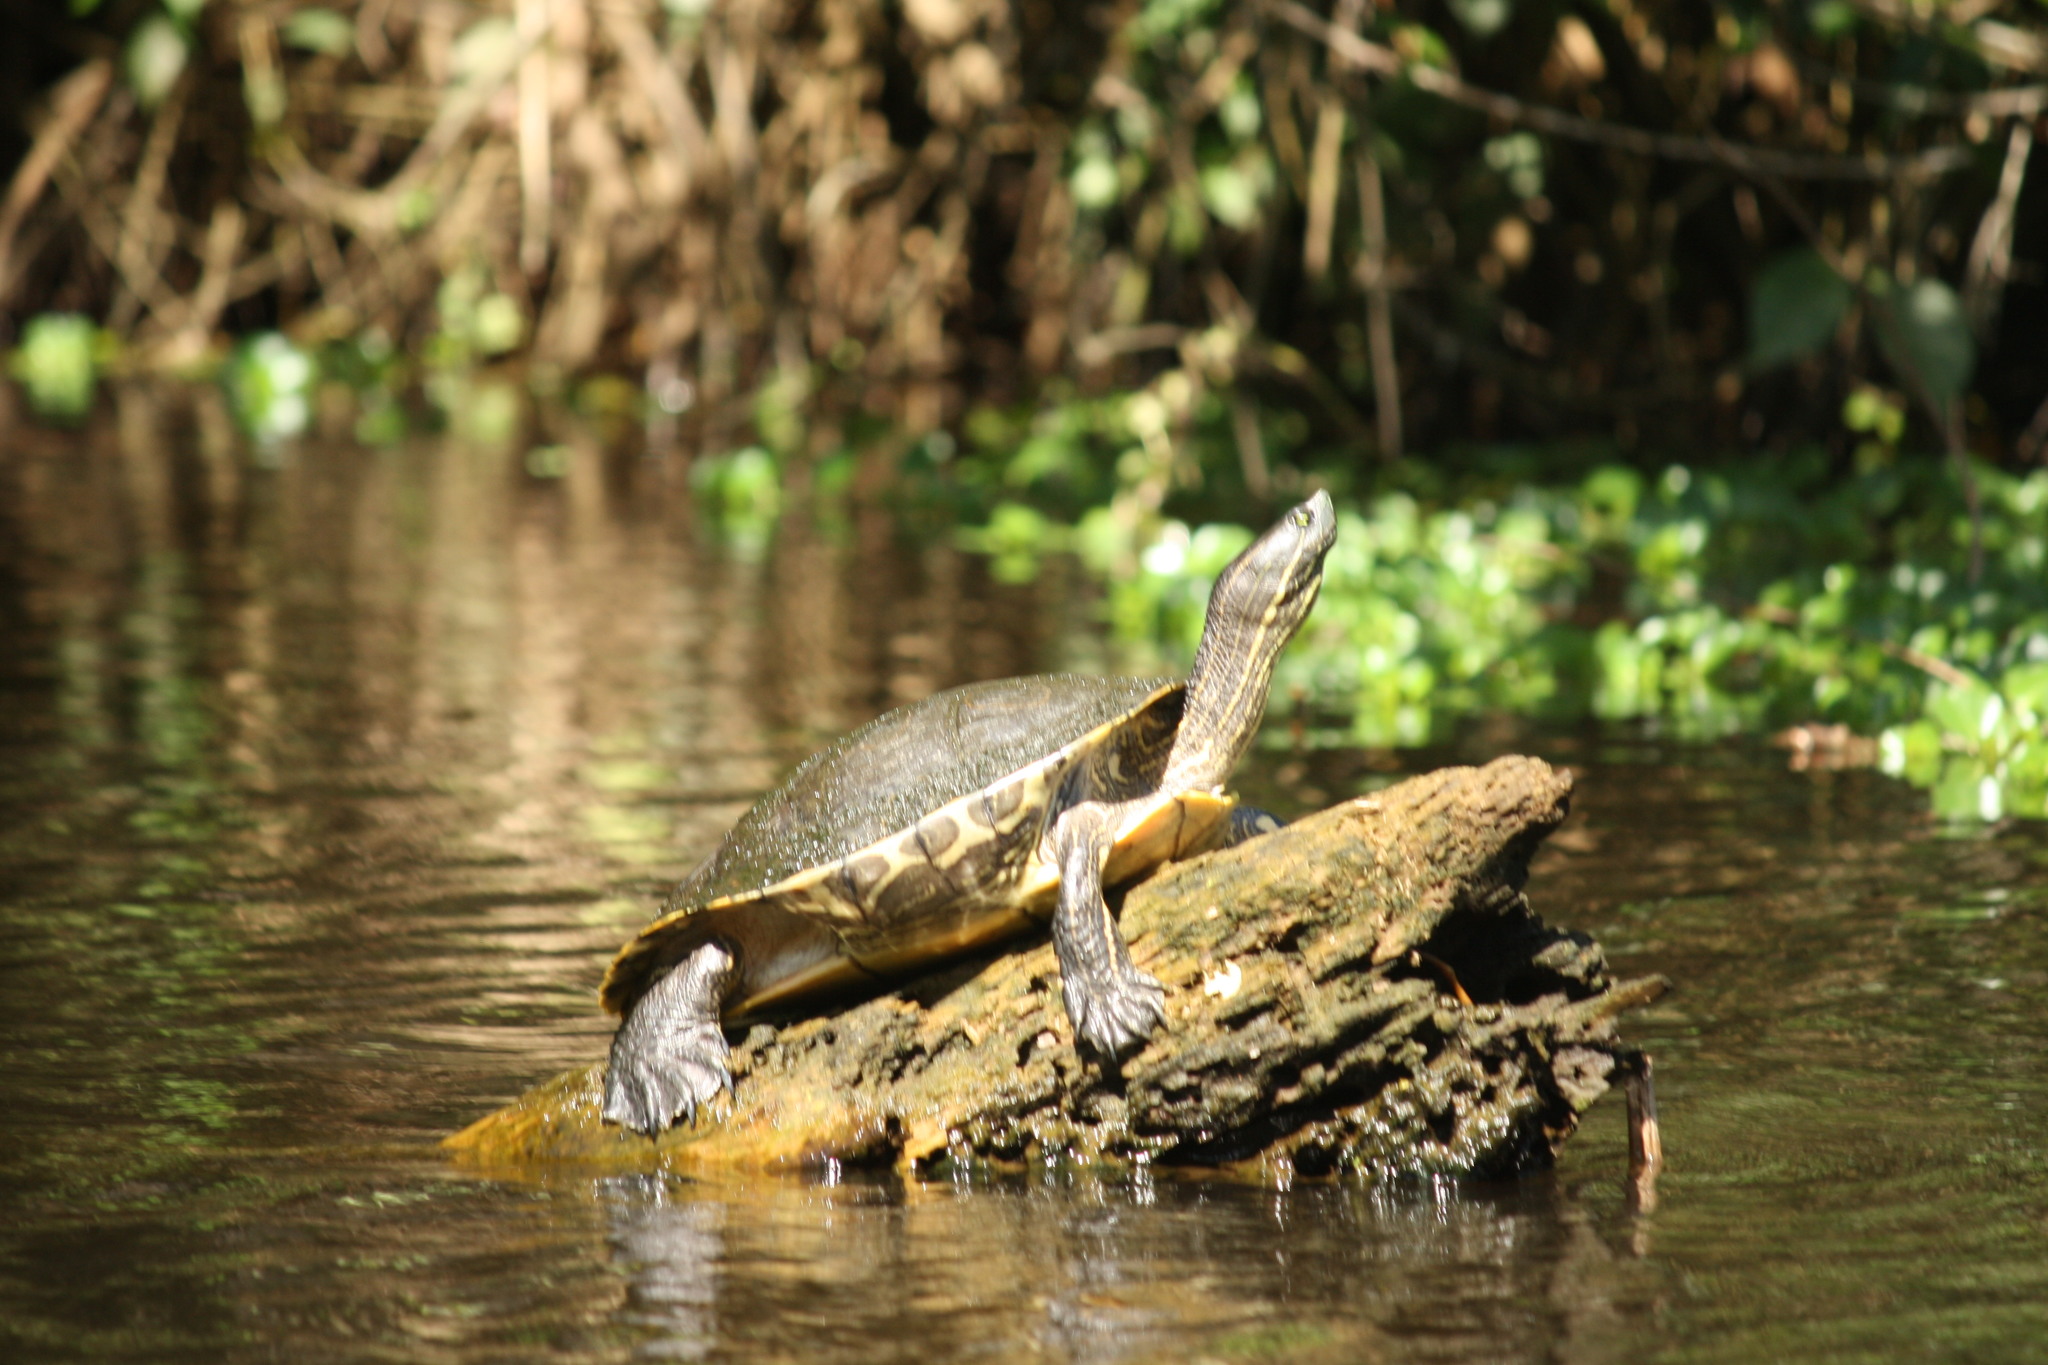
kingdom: Animalia
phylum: Chordata
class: Testudines
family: Emydidae
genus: Trachemys
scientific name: Trachemys venusta
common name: Mesoamerican slider
